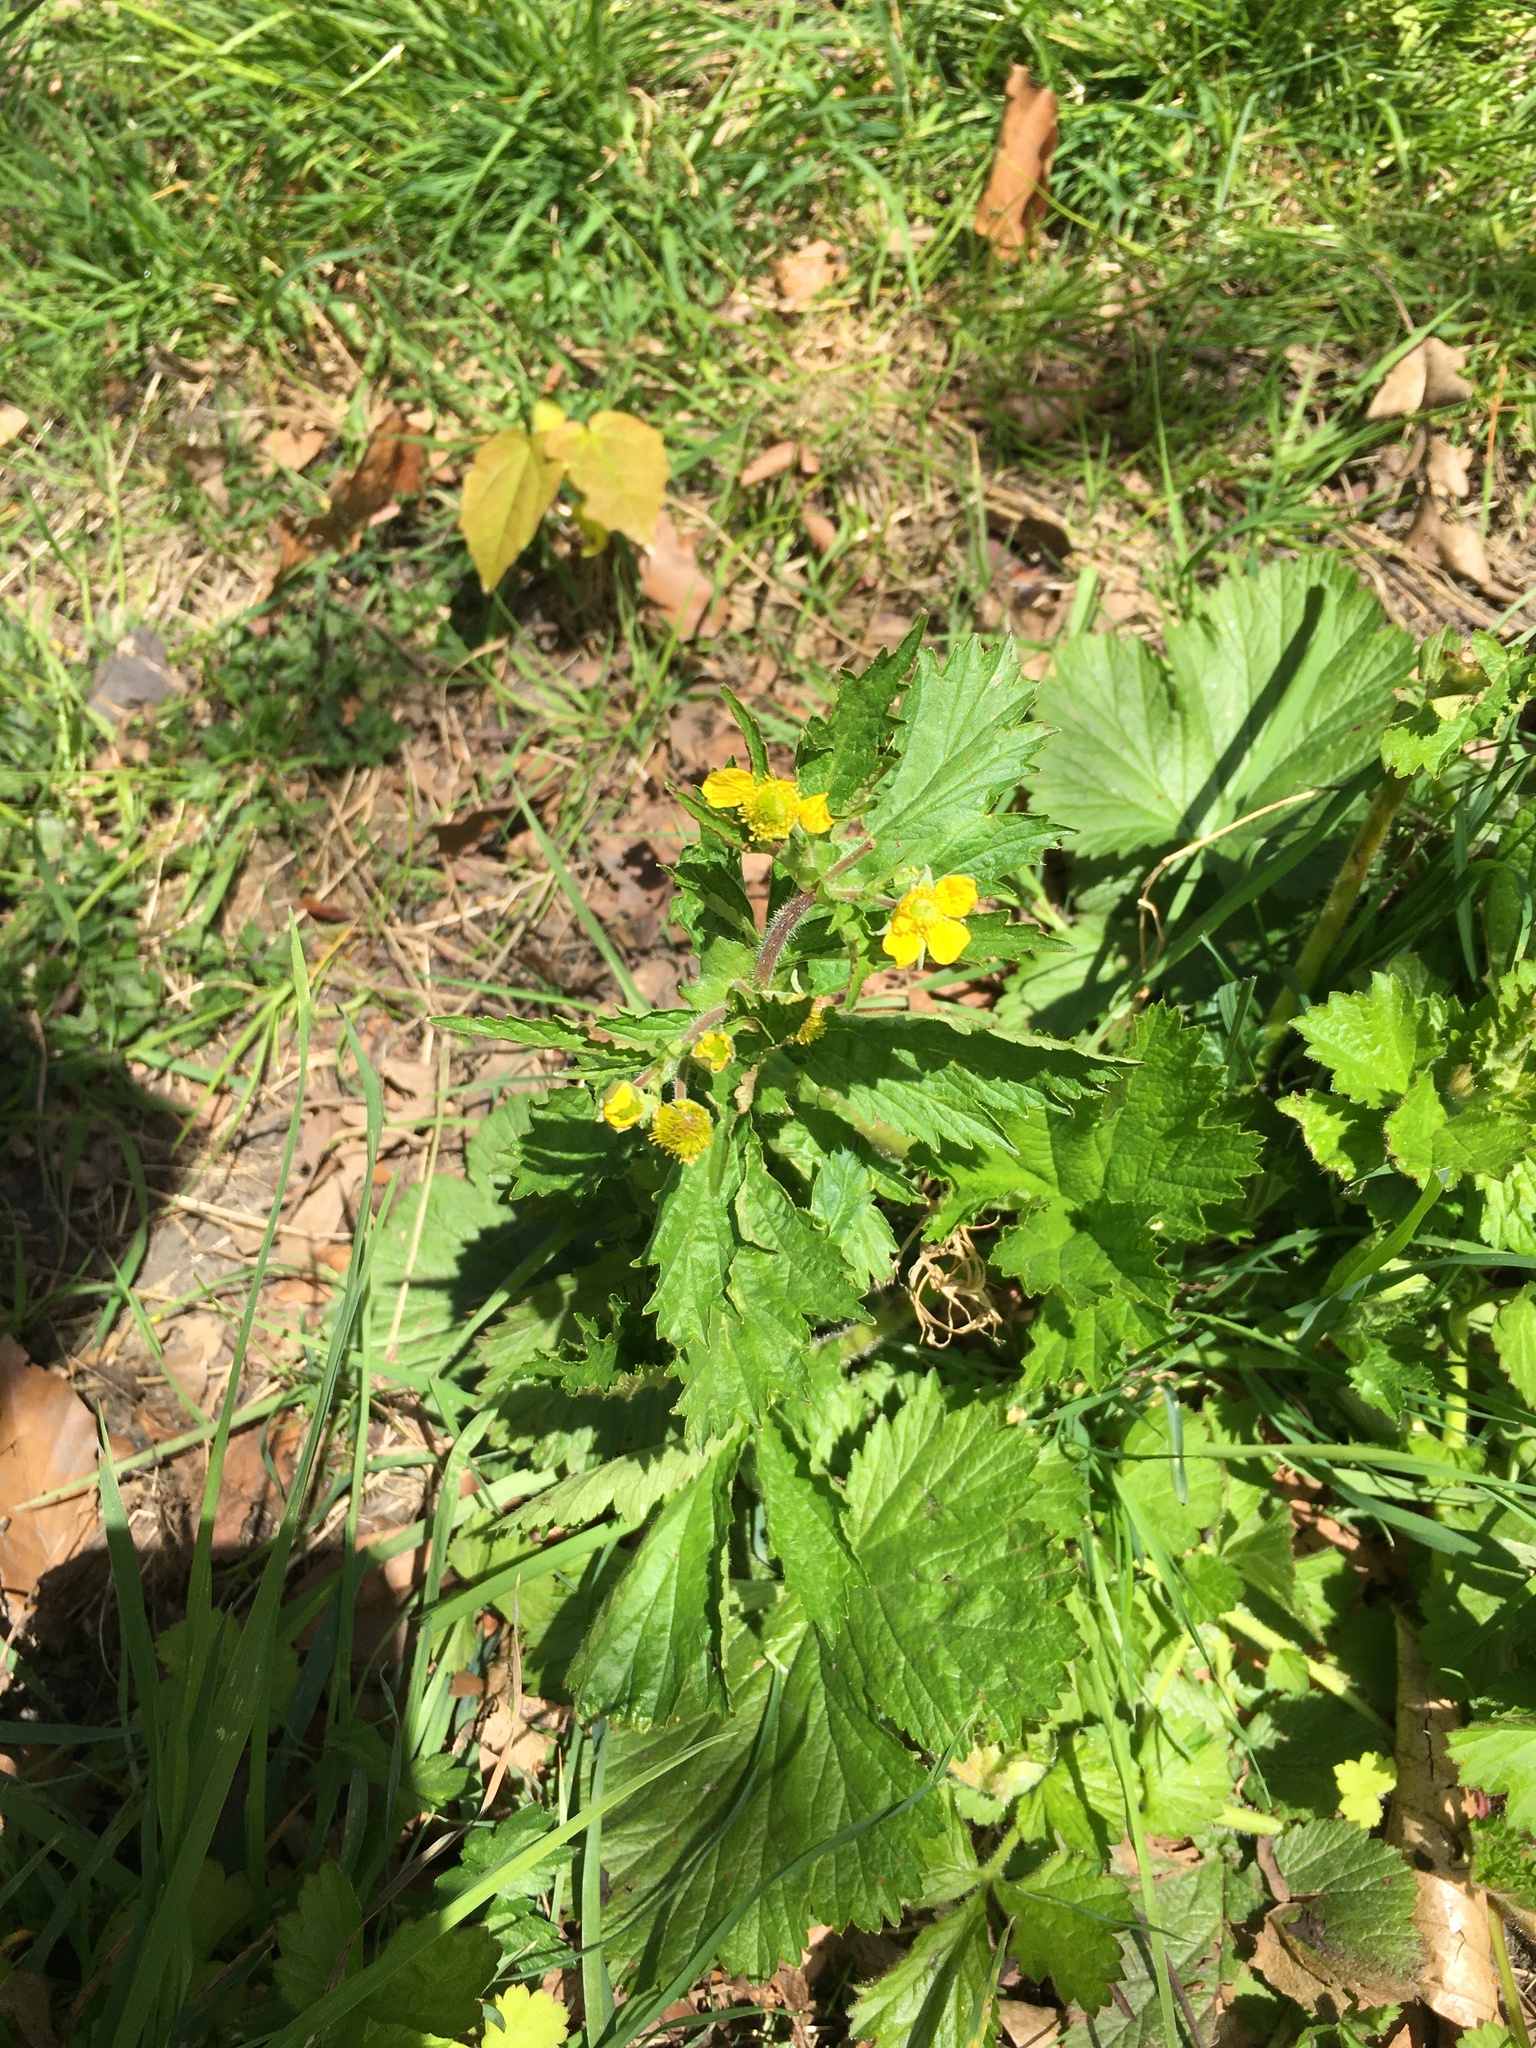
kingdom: Plantae
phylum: Tracheophyta
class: Magnoliopsida
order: Rosales
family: Rosaceae
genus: Geum
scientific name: Geum urbanum
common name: Wood avens
